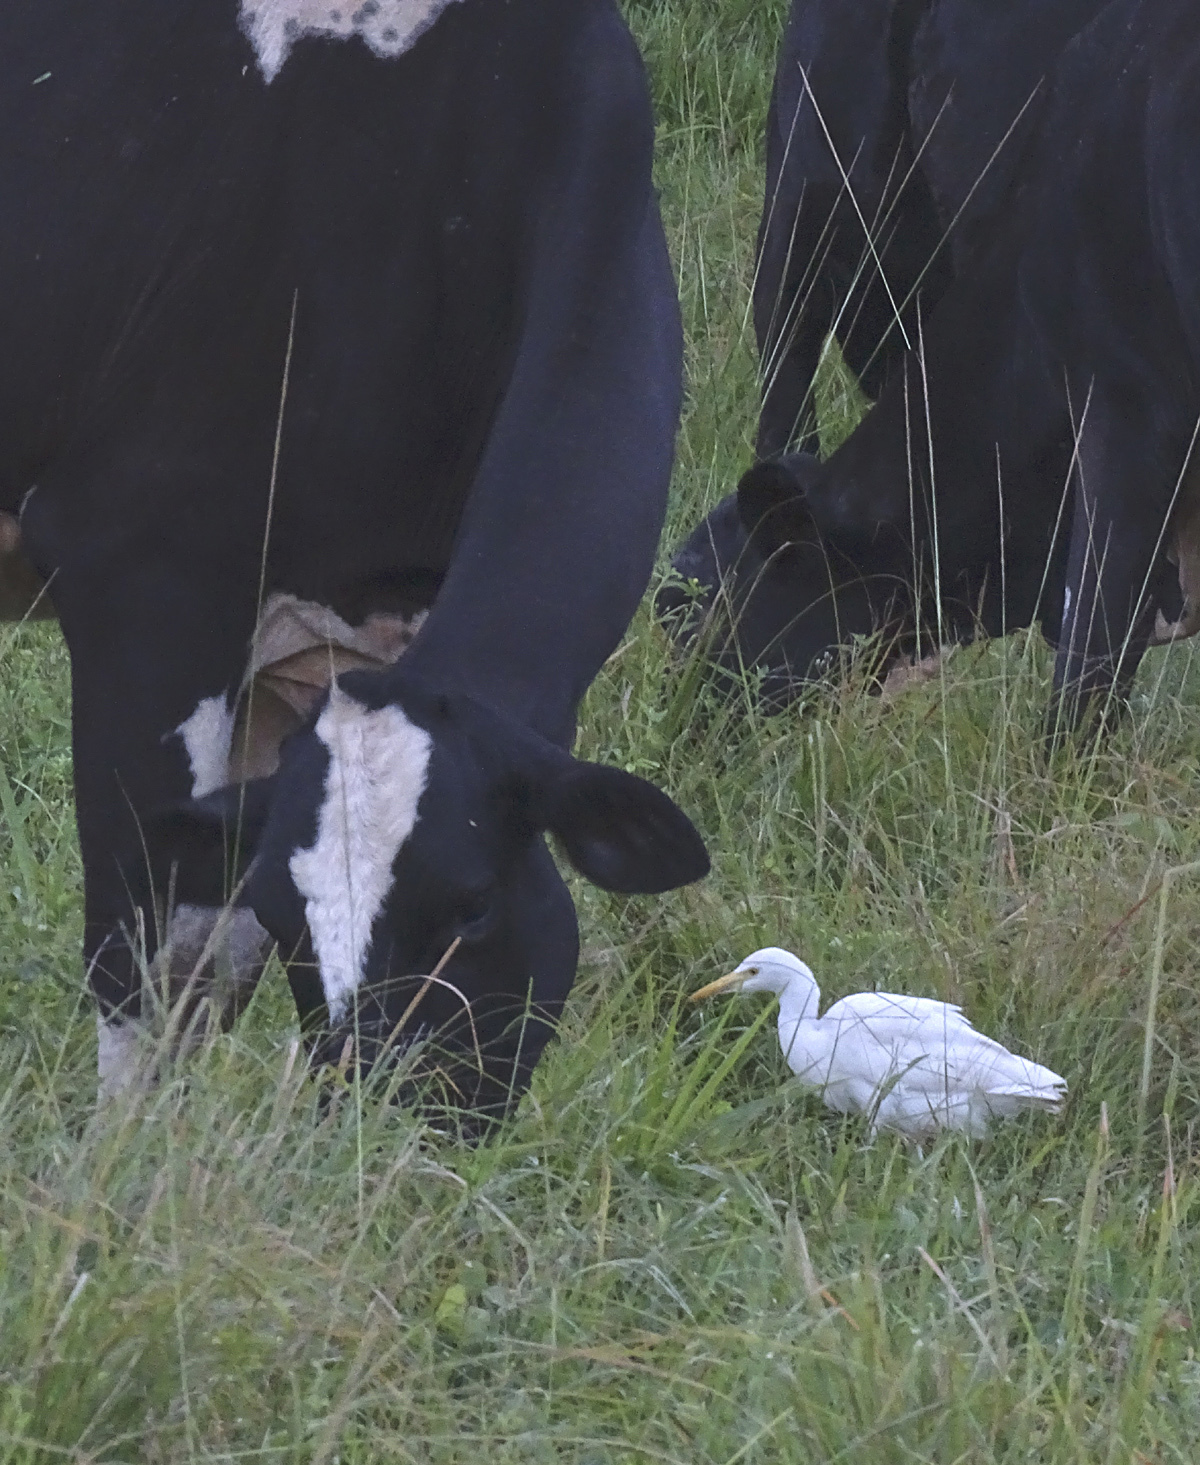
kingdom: Animalia
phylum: Chordata
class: Aves
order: Pelecaniformes
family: Ardeidae
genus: Bubulcus
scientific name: Bubulcus ibis
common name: Cattle egret
